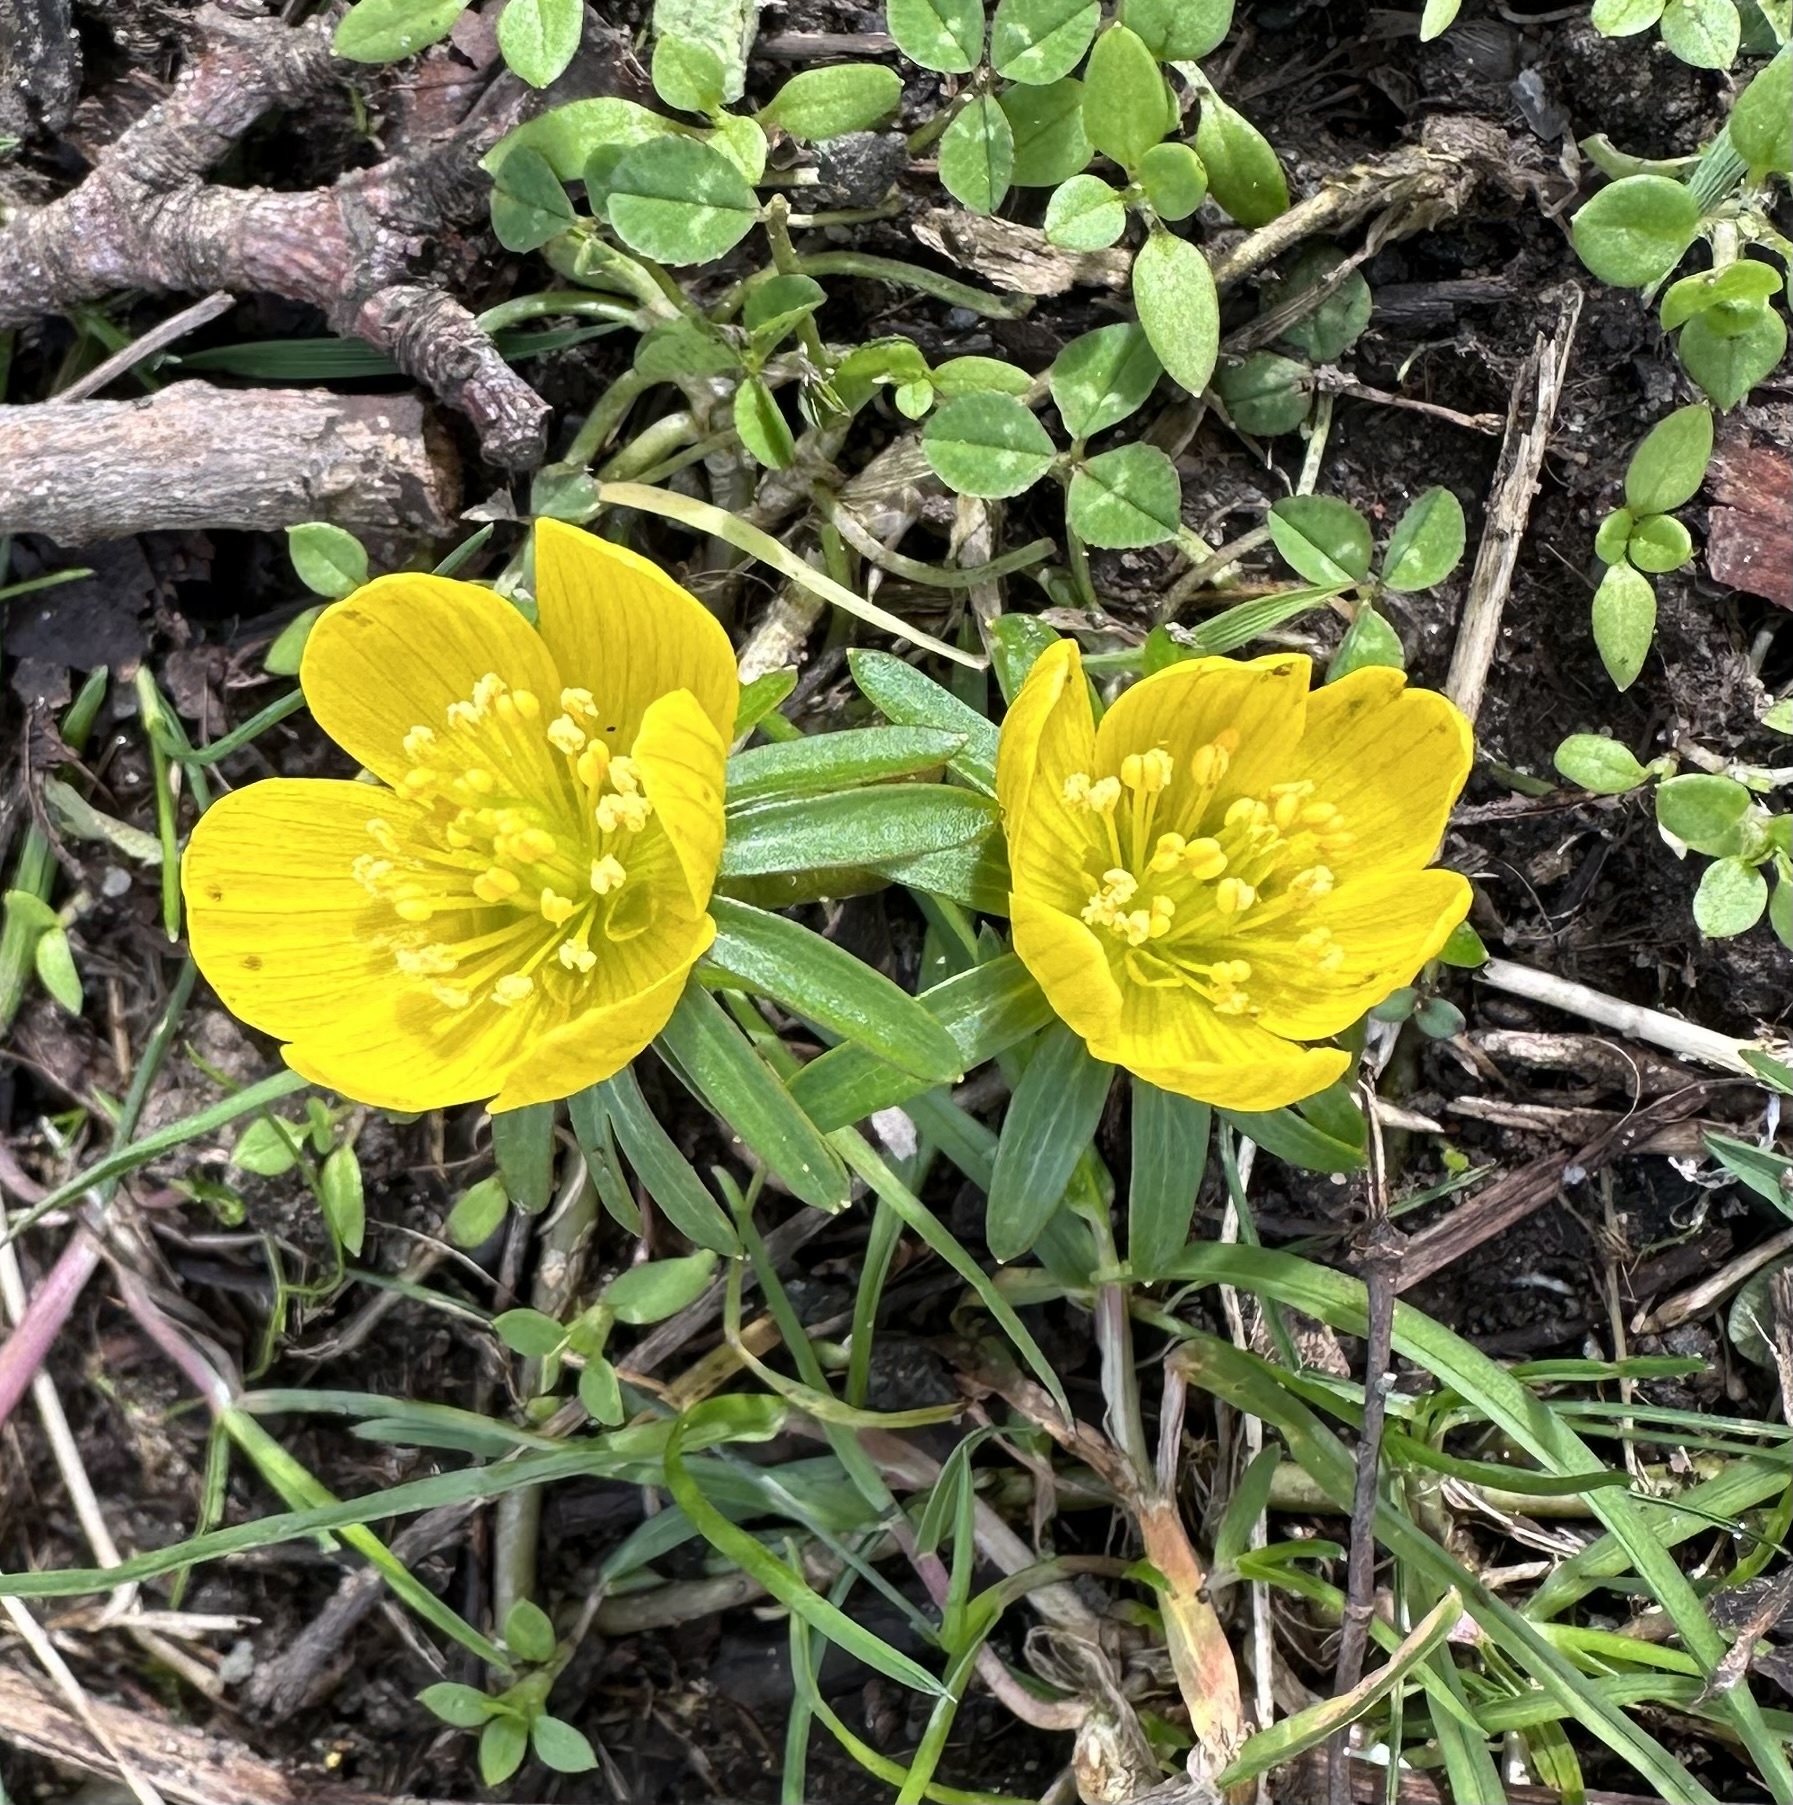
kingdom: Plantae
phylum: Tracheophyta
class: Magnoliopsida
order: Ranunculales
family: Ranunculaceae
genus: Eranthis
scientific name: Eranthis hyemalis
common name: Winter aconite
